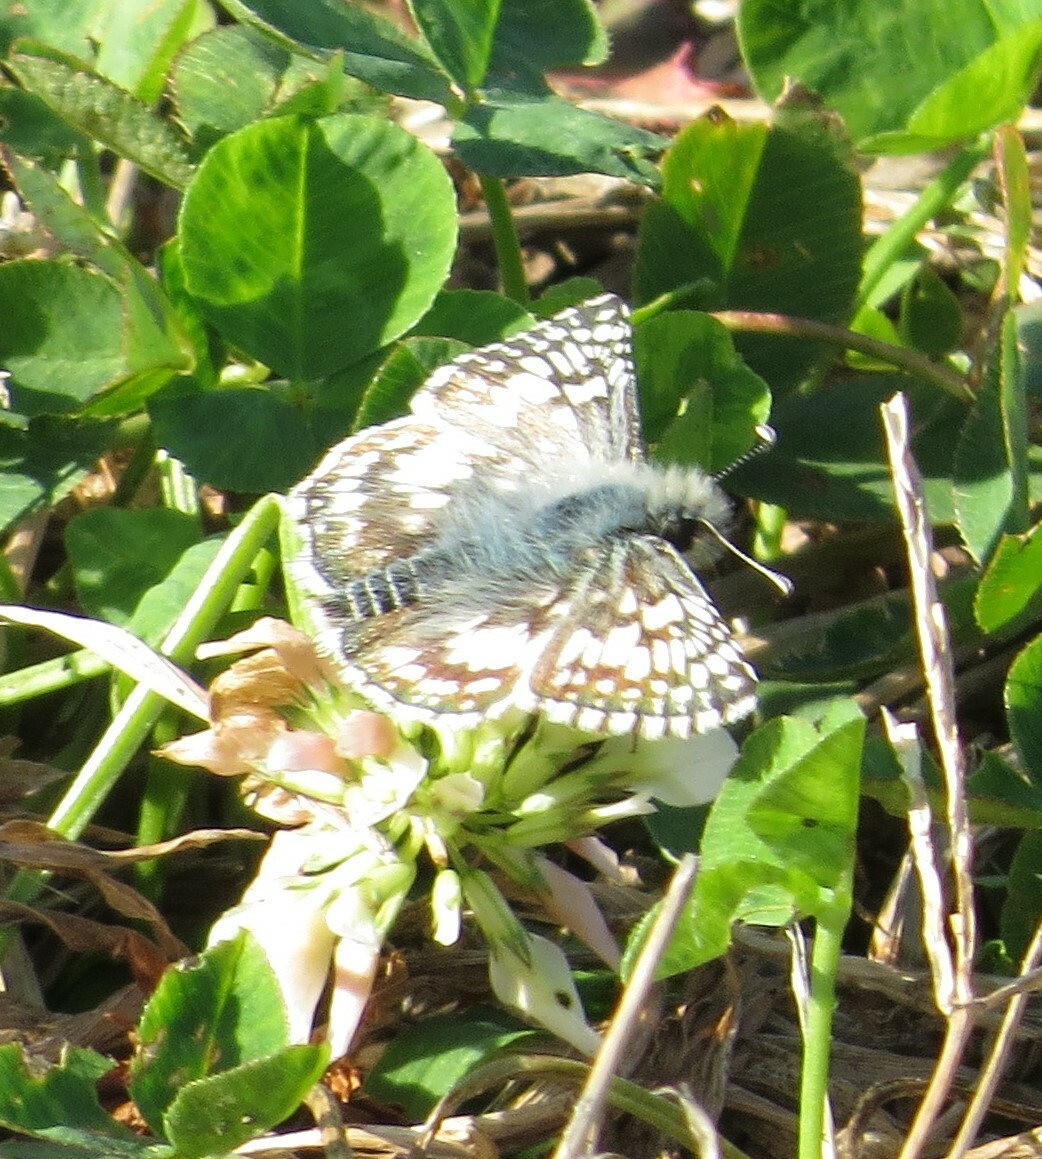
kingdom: Animalia
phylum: Arthropoda
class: Insecta
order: Lepidoptera
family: Hesperiidae
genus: Burnsius
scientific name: Burnsius communis
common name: Common checkered-skipper
